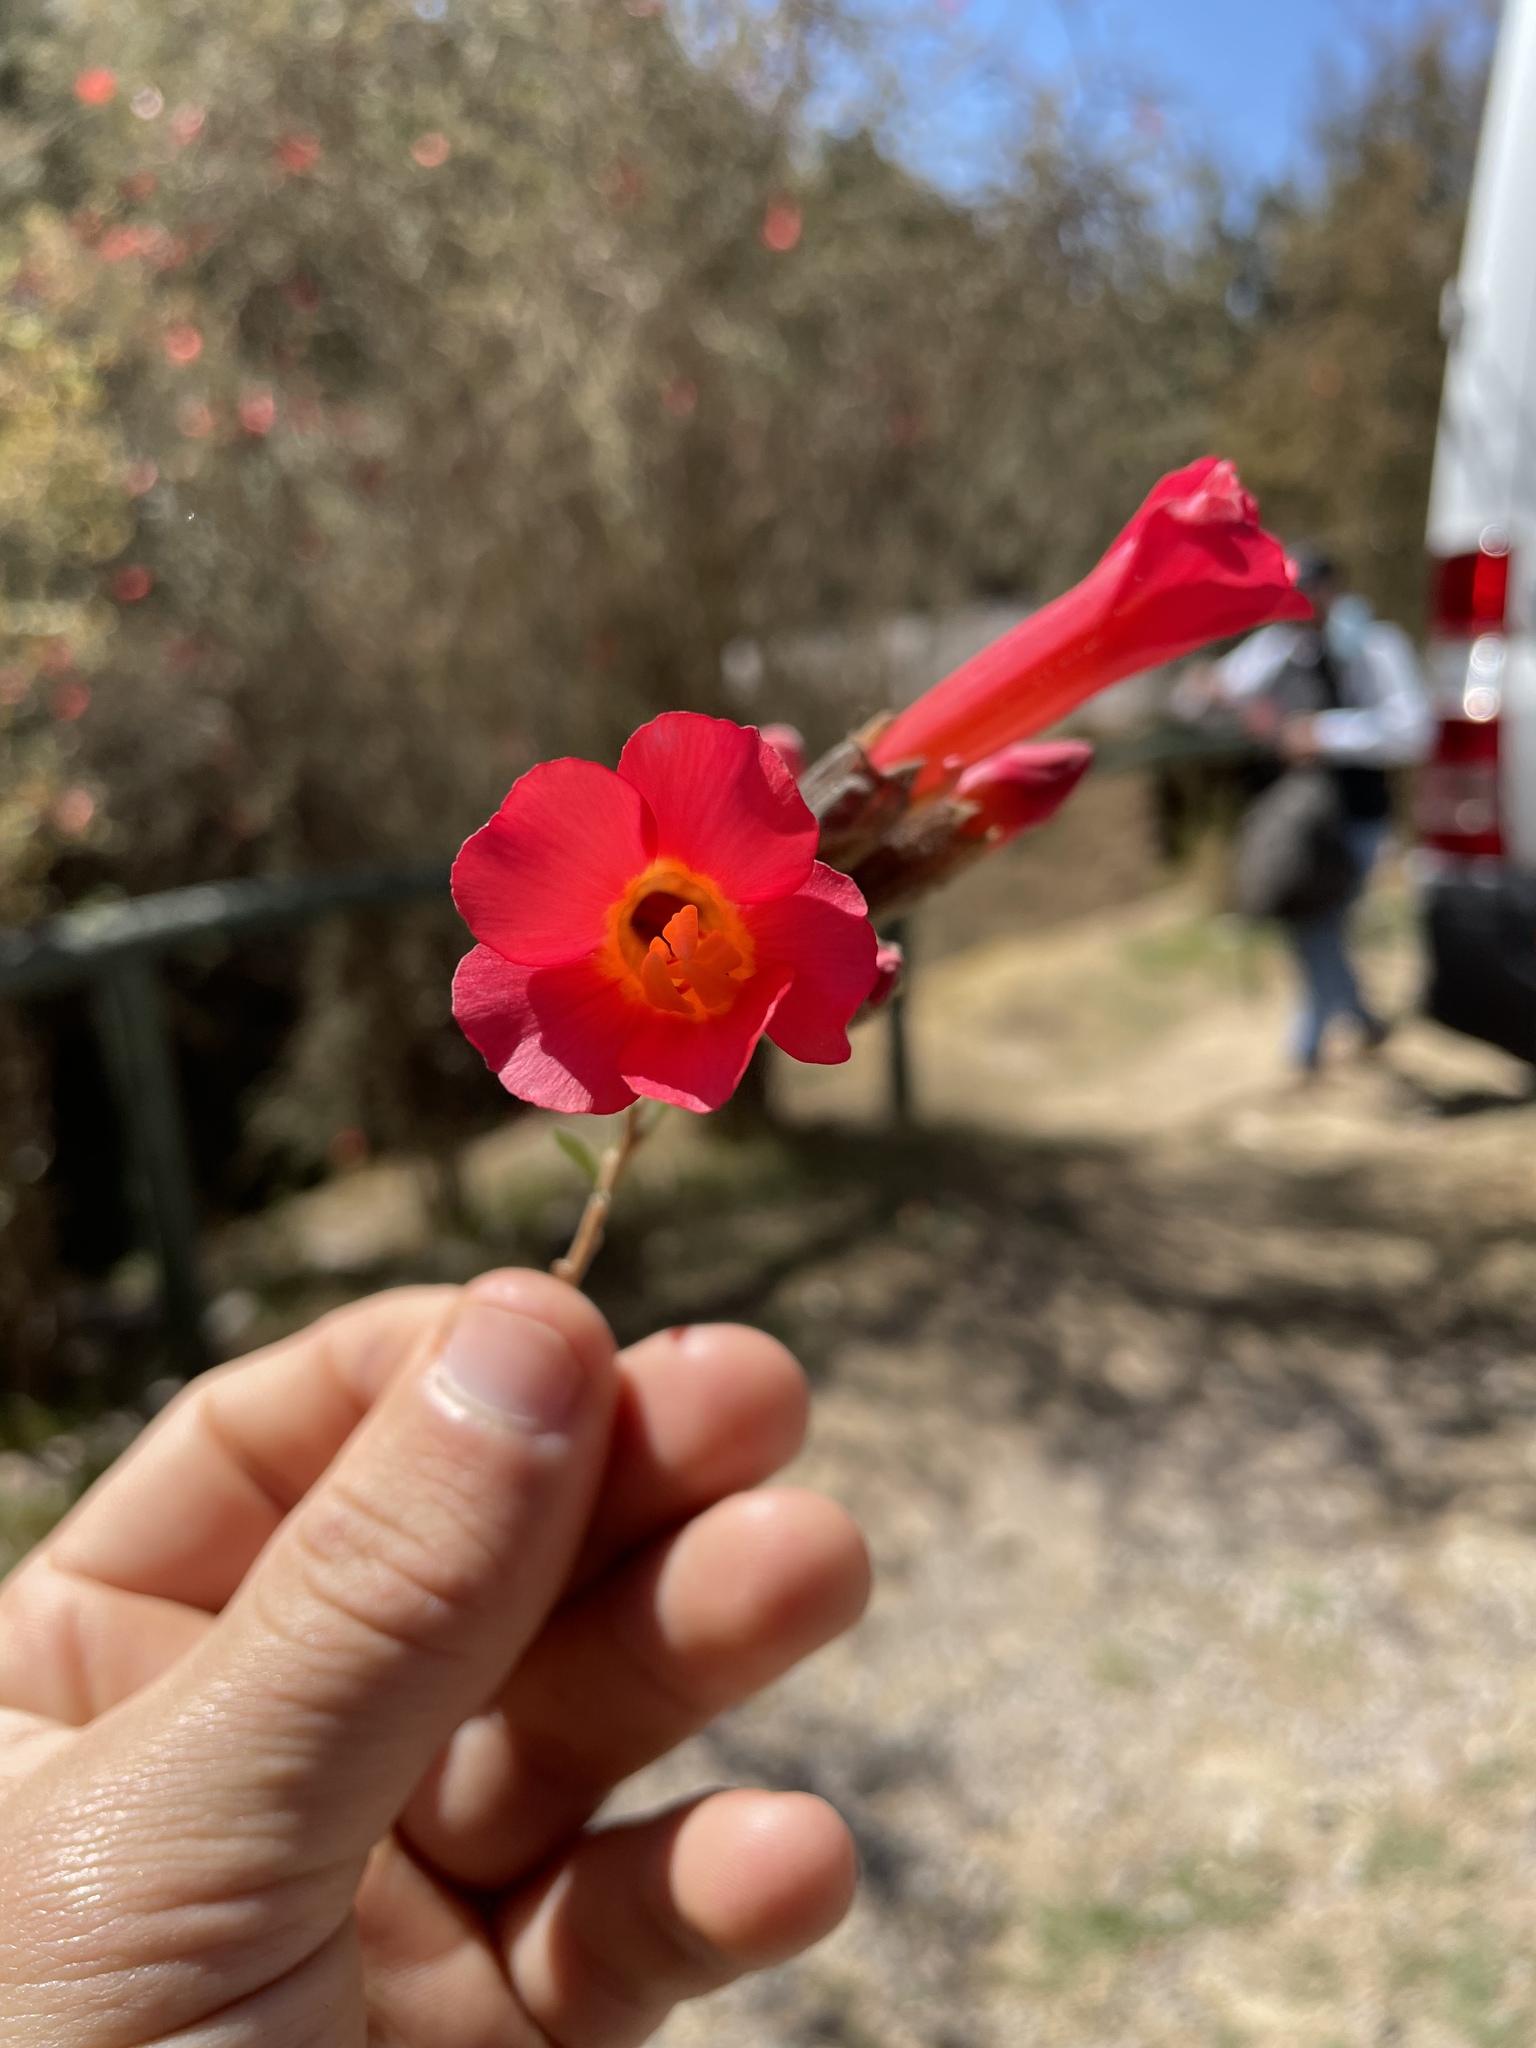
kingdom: Plantae
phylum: Tracheophyta
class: Magnoliopsida
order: Ericales
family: Polemoniaceae
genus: Cantua
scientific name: Cantua buxifolia
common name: Sacred-flower-of-the-incas
